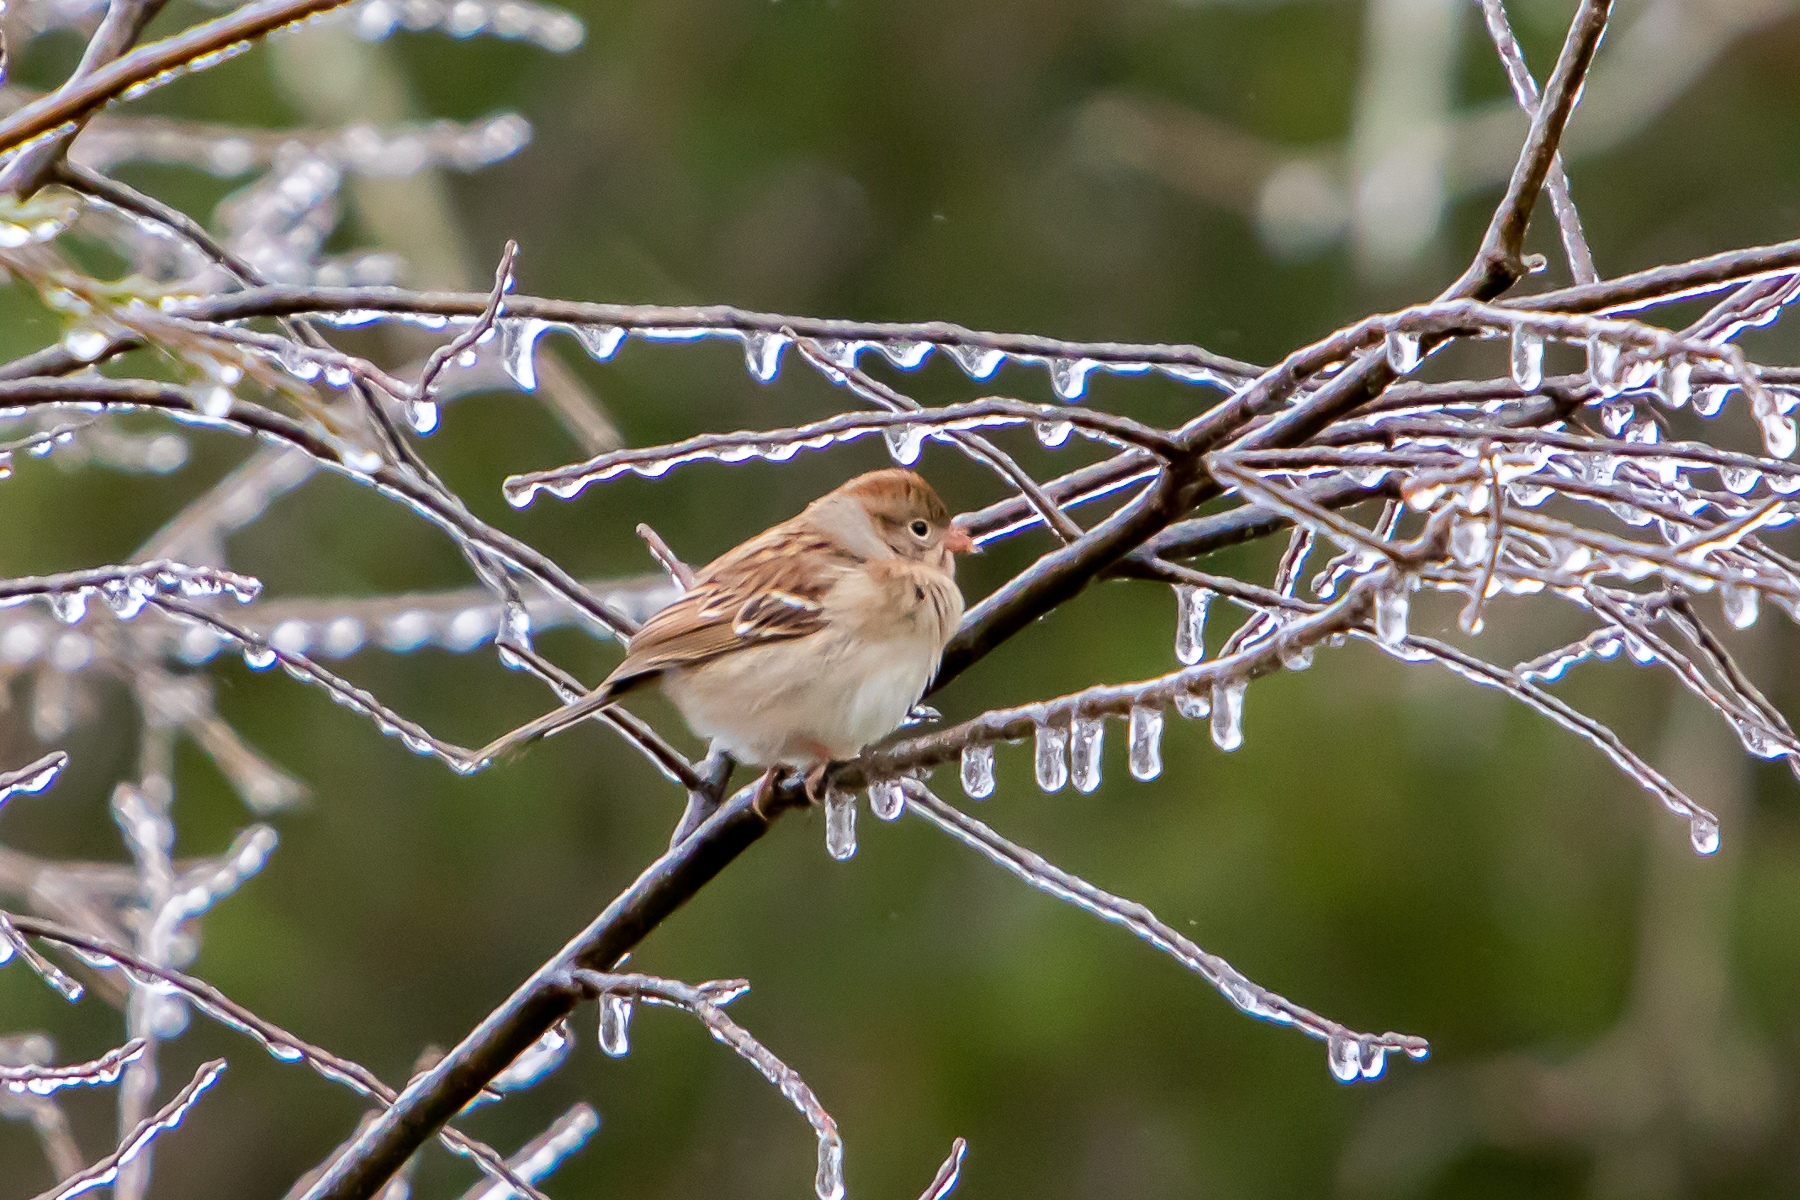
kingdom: Animalia
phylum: Chordata
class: Aves
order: Passeriformes
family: Passerellidae
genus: Spizella
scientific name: Spizella pusilla
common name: Field sparrow
